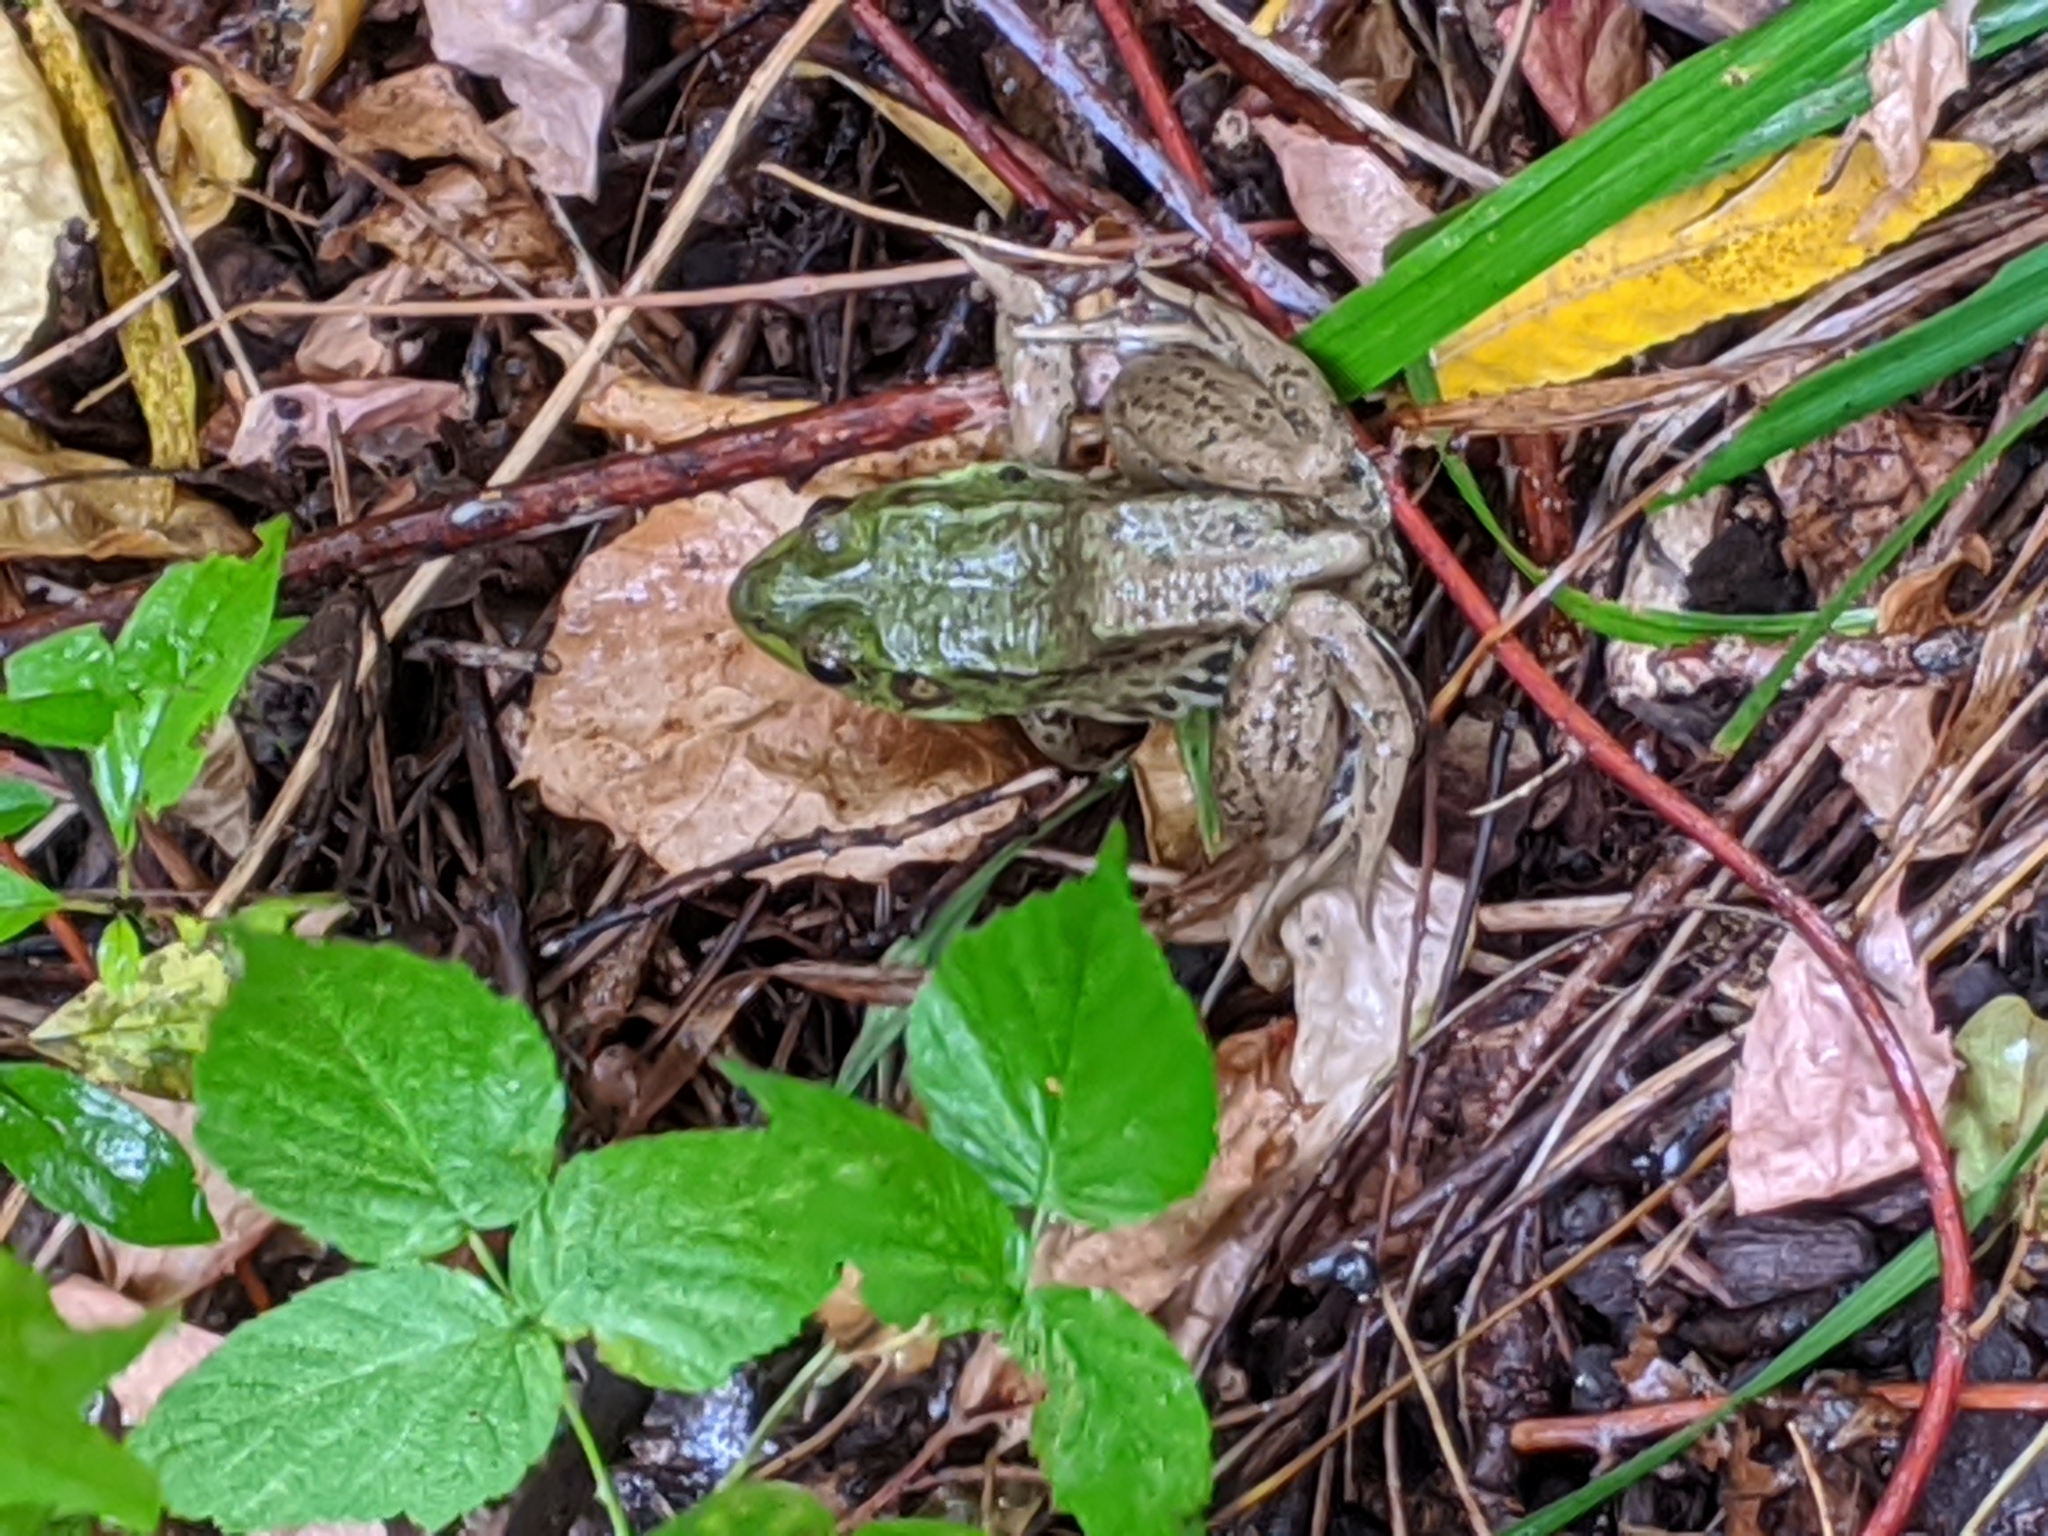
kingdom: Animalia
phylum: Chordata
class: Amphibia
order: Anura
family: Ranidae
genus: Lithobates
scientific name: Lithobates clamitans
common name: Green frog
